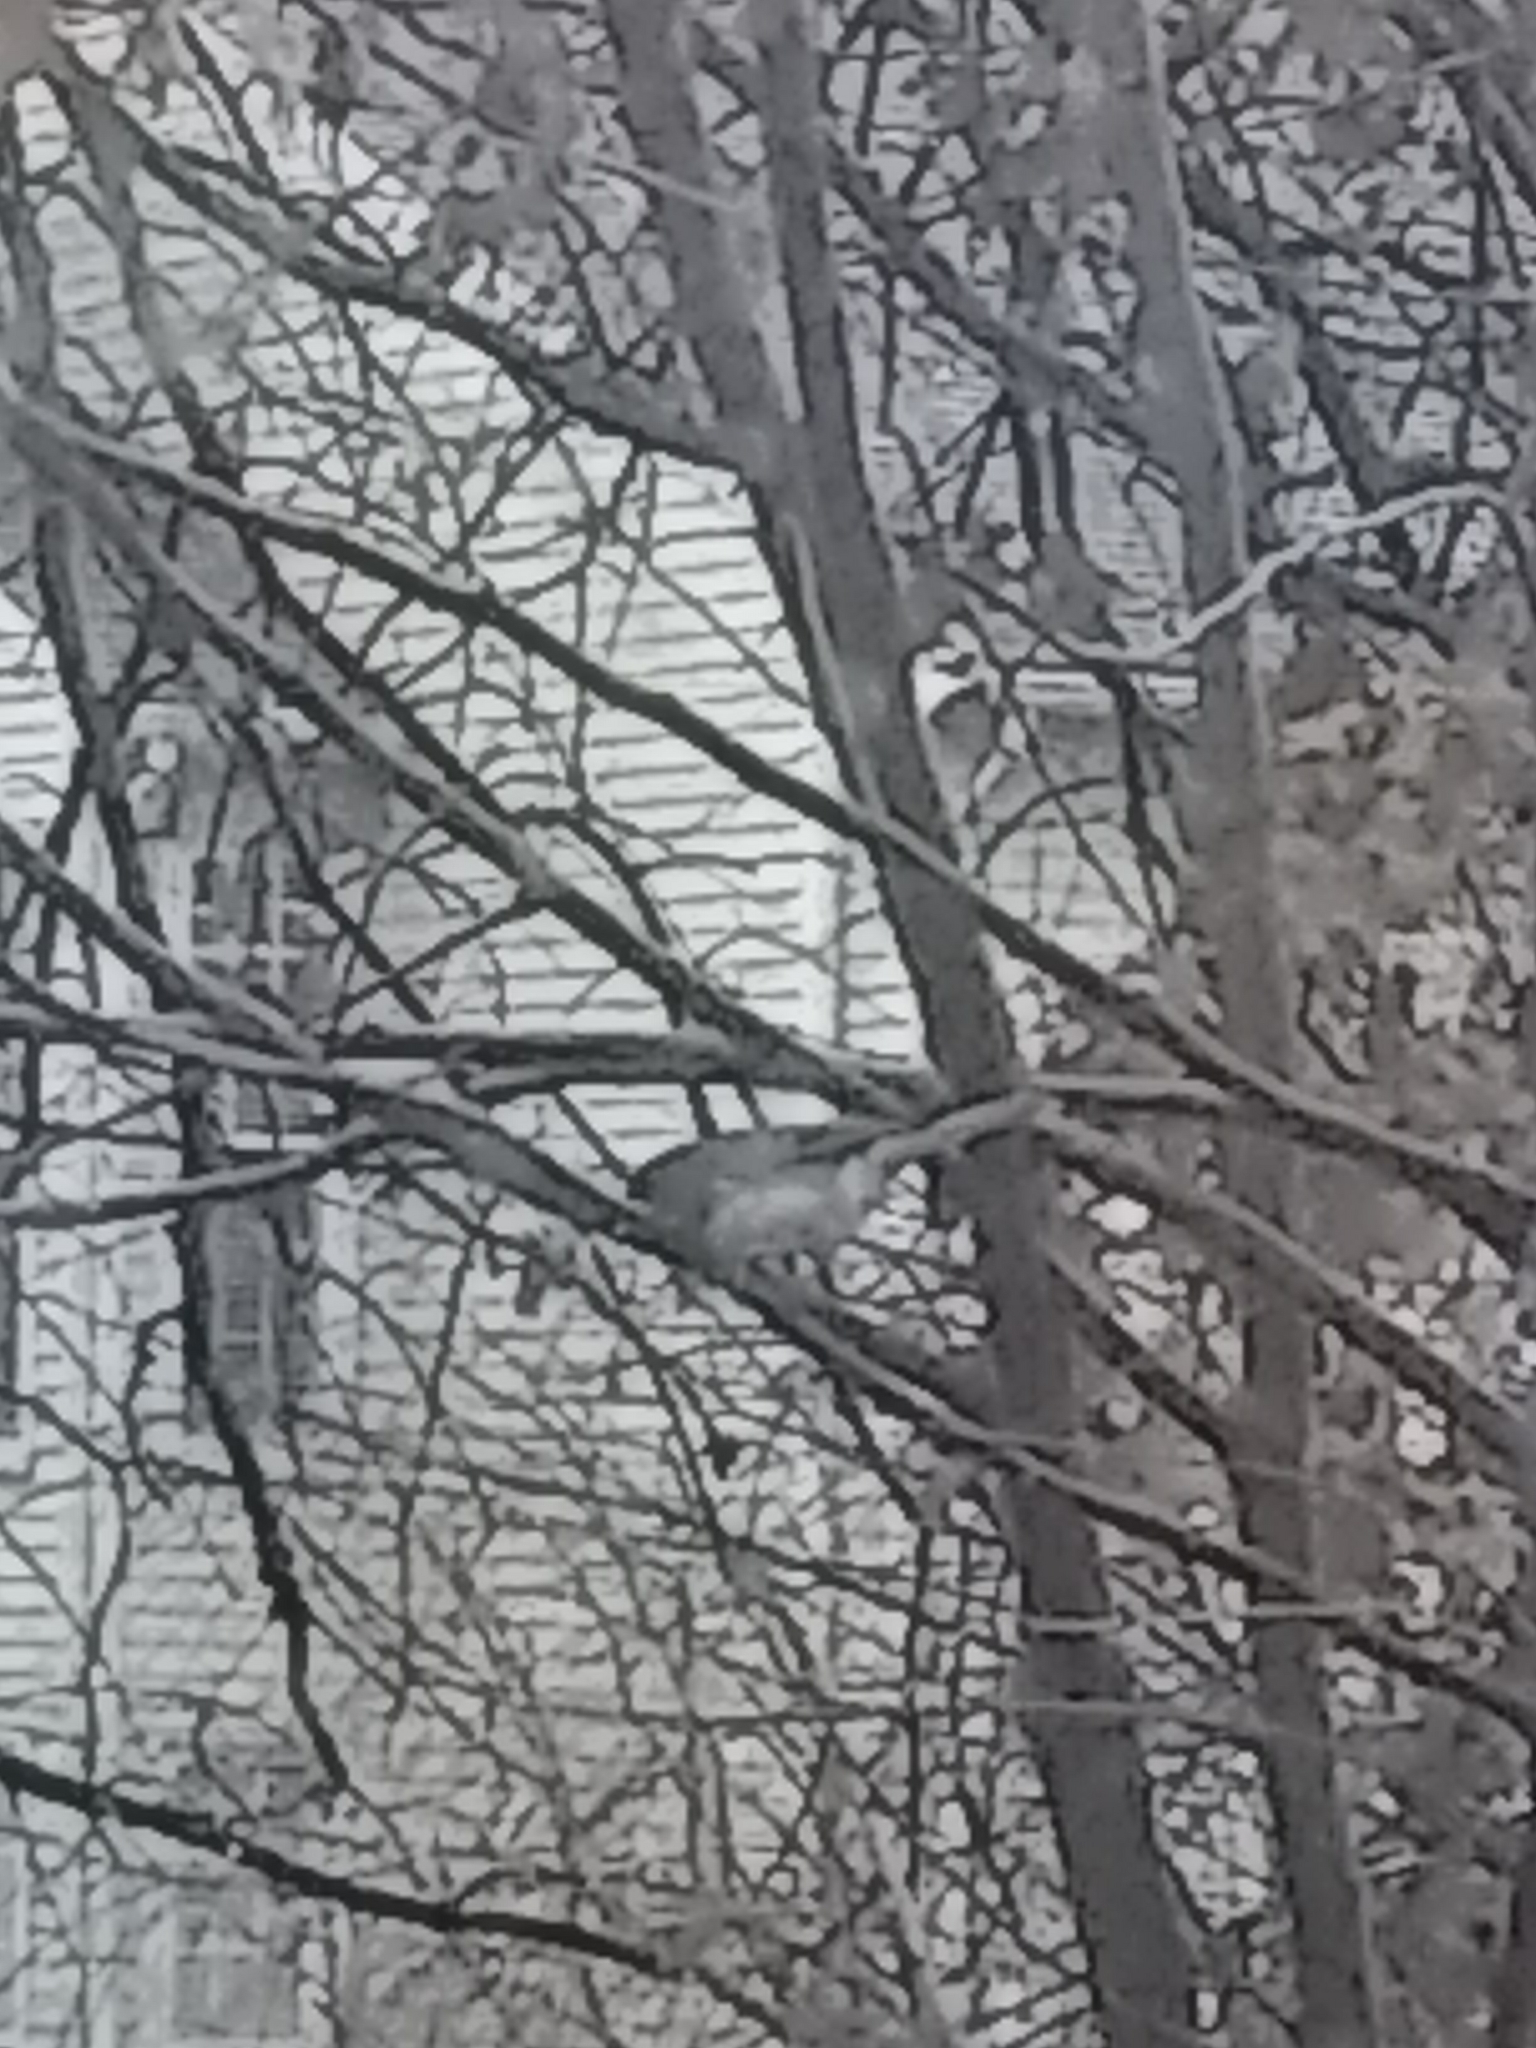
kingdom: Animalia
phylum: Chordata
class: Aves
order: Passeriformes
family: Passerellidae
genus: Junco
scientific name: Junco hyemalis
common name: Dark-eyed junco
